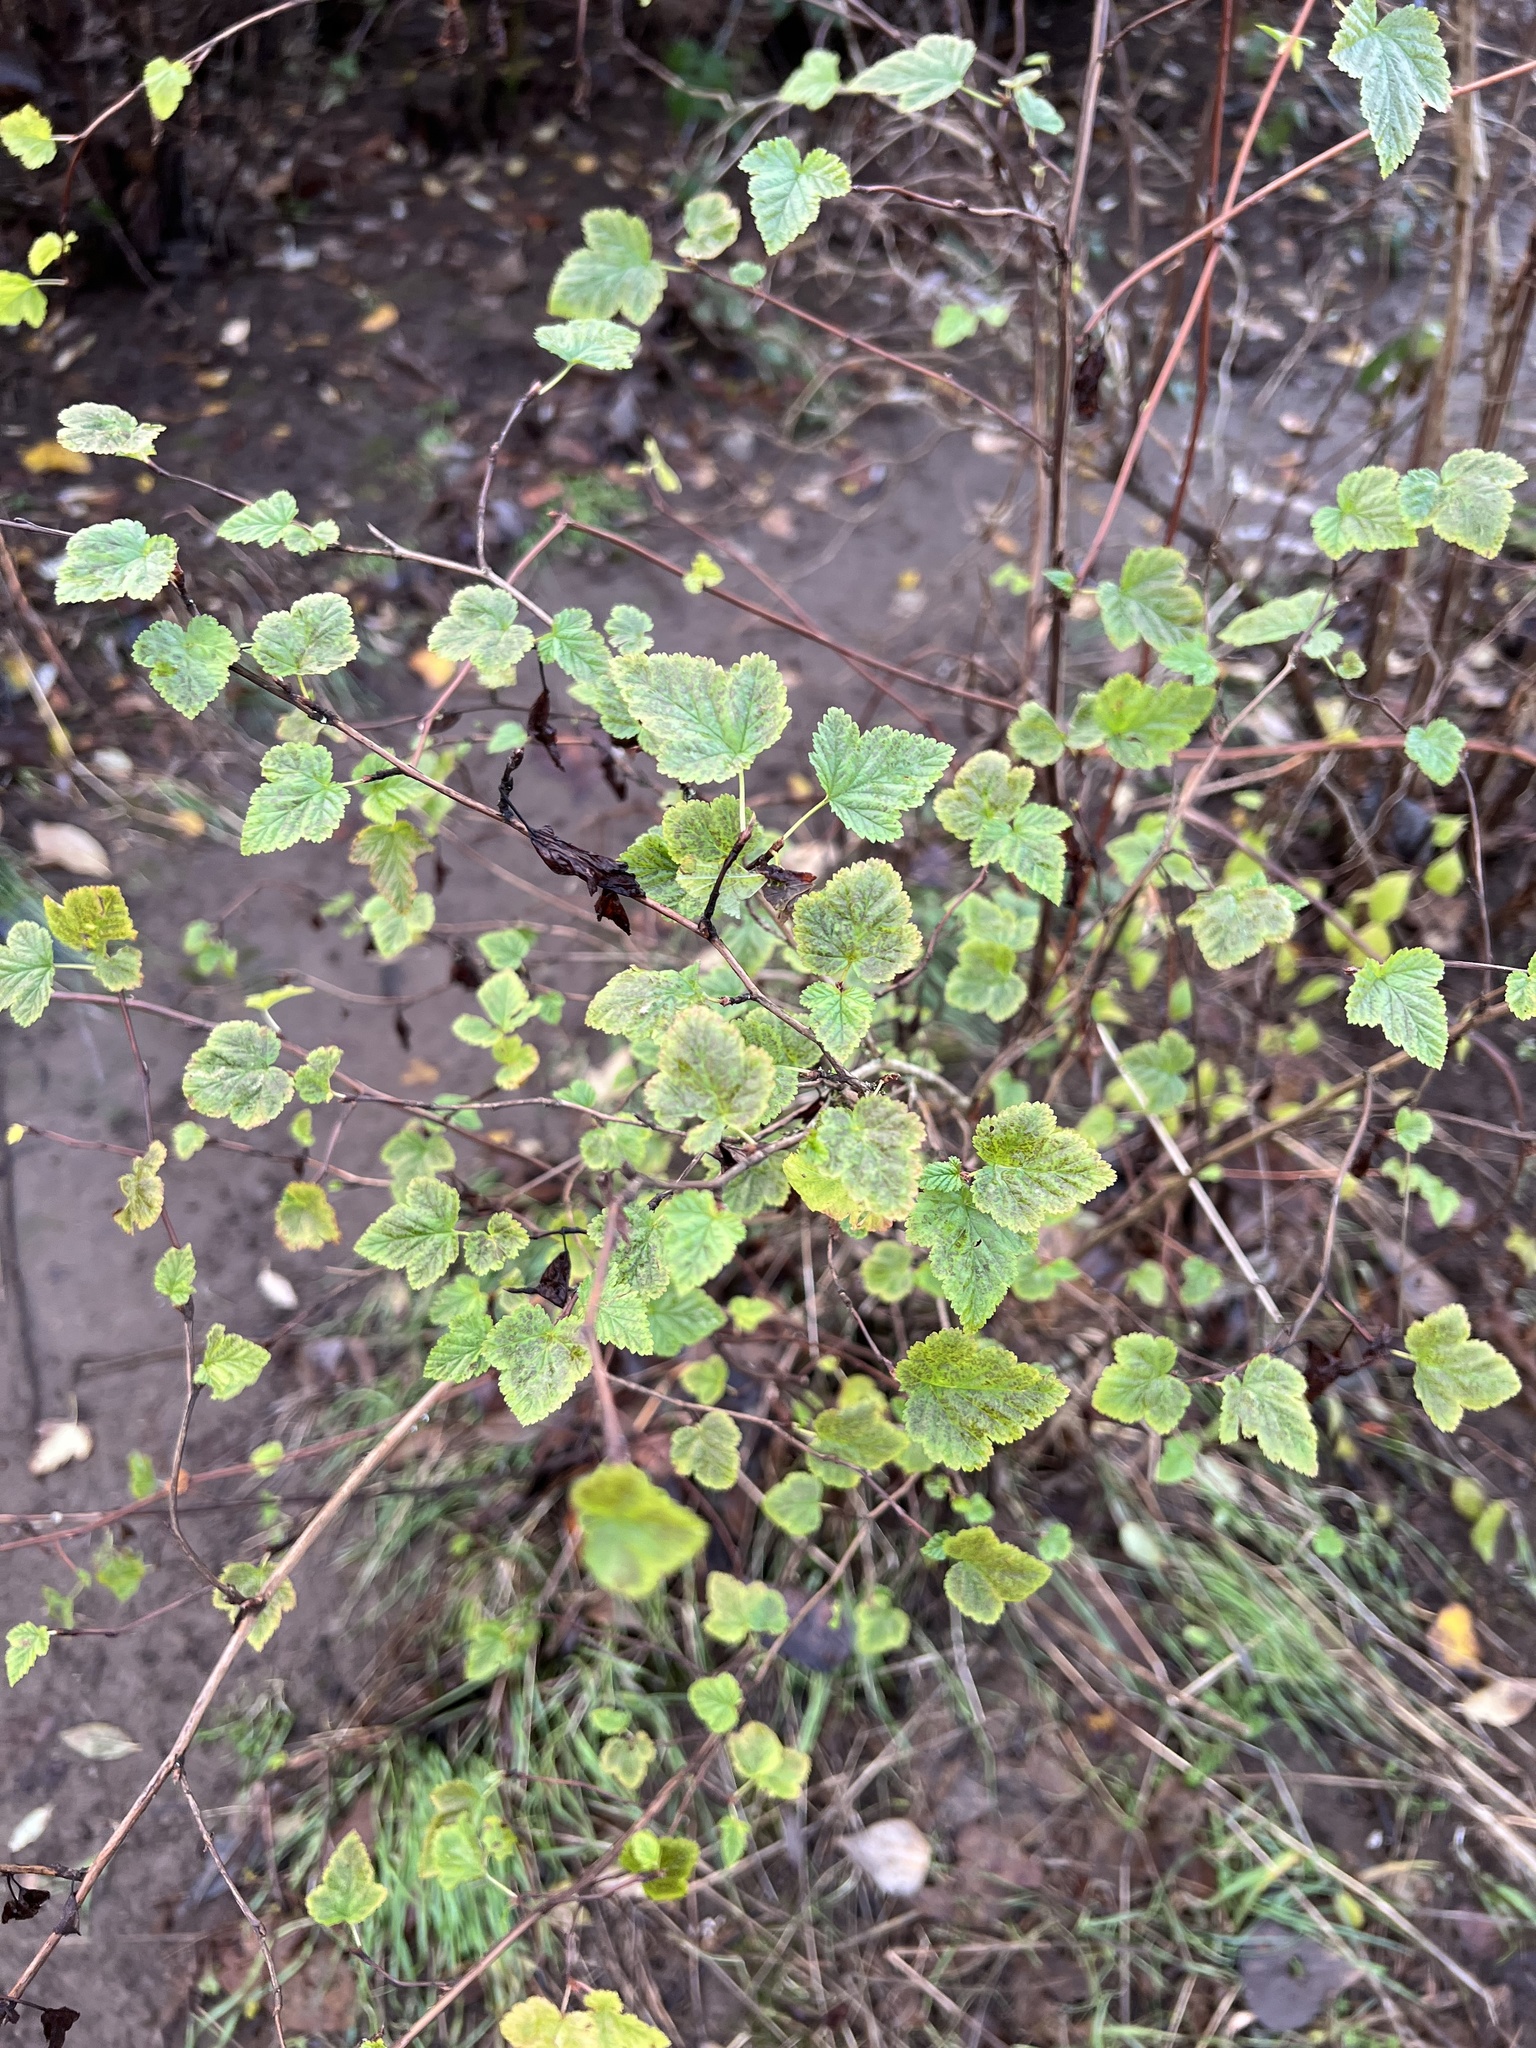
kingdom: Plantae
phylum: Tracheophyta
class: Magnoliopsida
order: Rosales
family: Rosaceae
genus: Physocarpus
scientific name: Physocarpus capitatus
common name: Pacific ninebark
